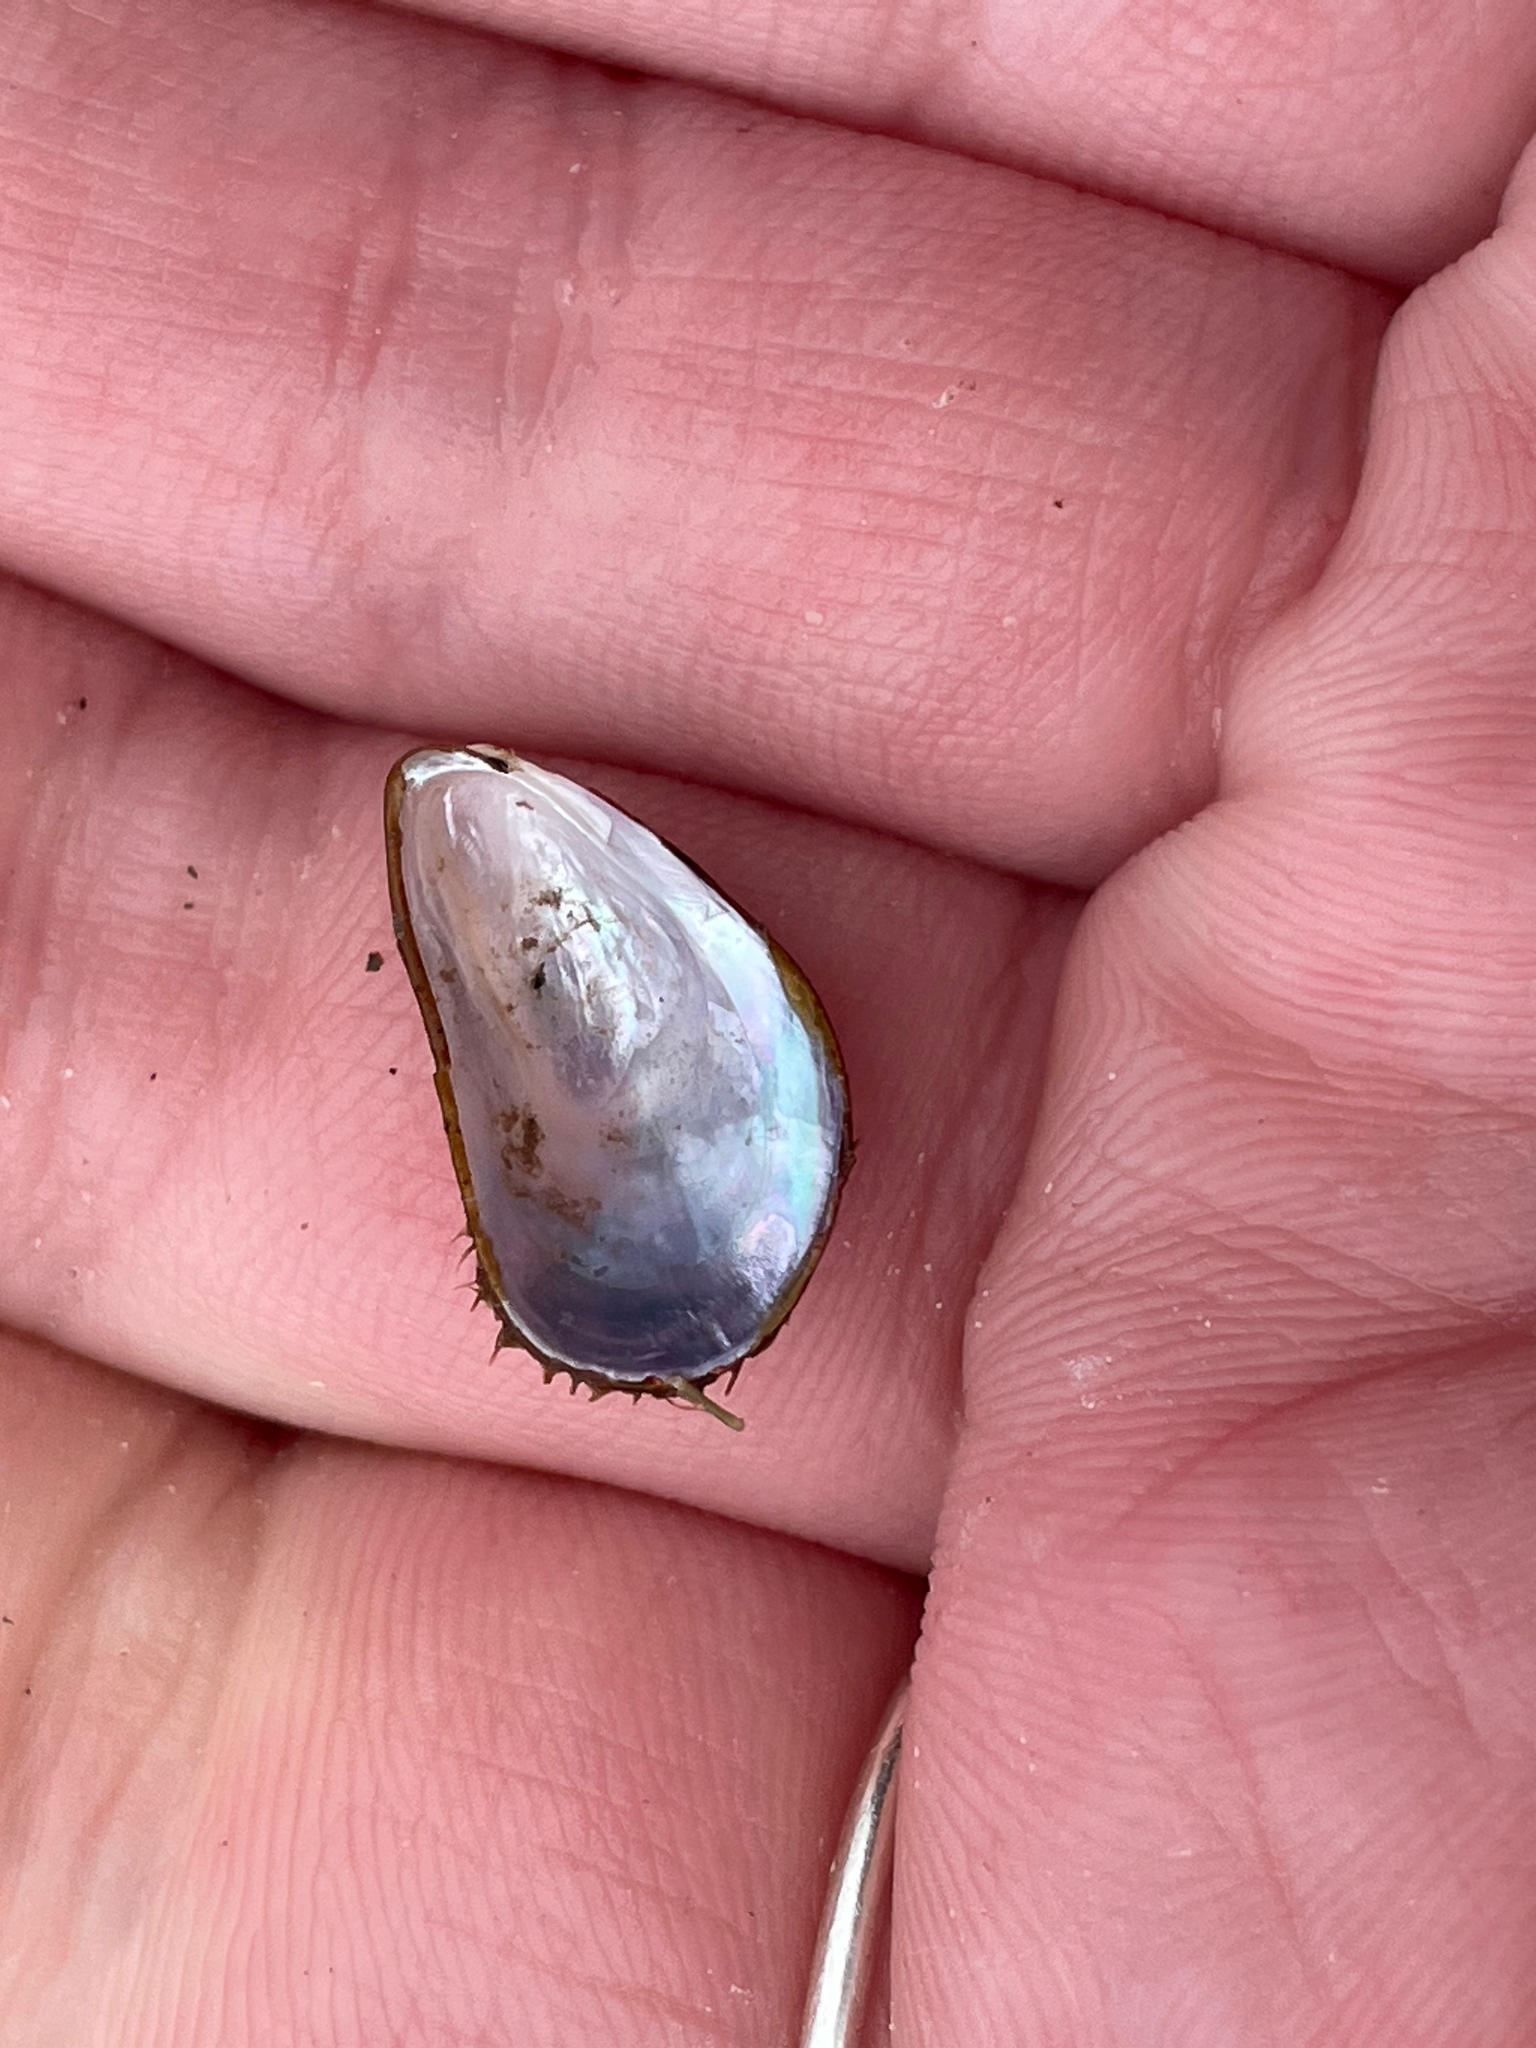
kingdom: Animalia
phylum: Mollusca
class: Bivalvia
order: Mytilida
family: Mytilidae
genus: Modiolus
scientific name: Modiolus modiolus
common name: Horse-mussel
